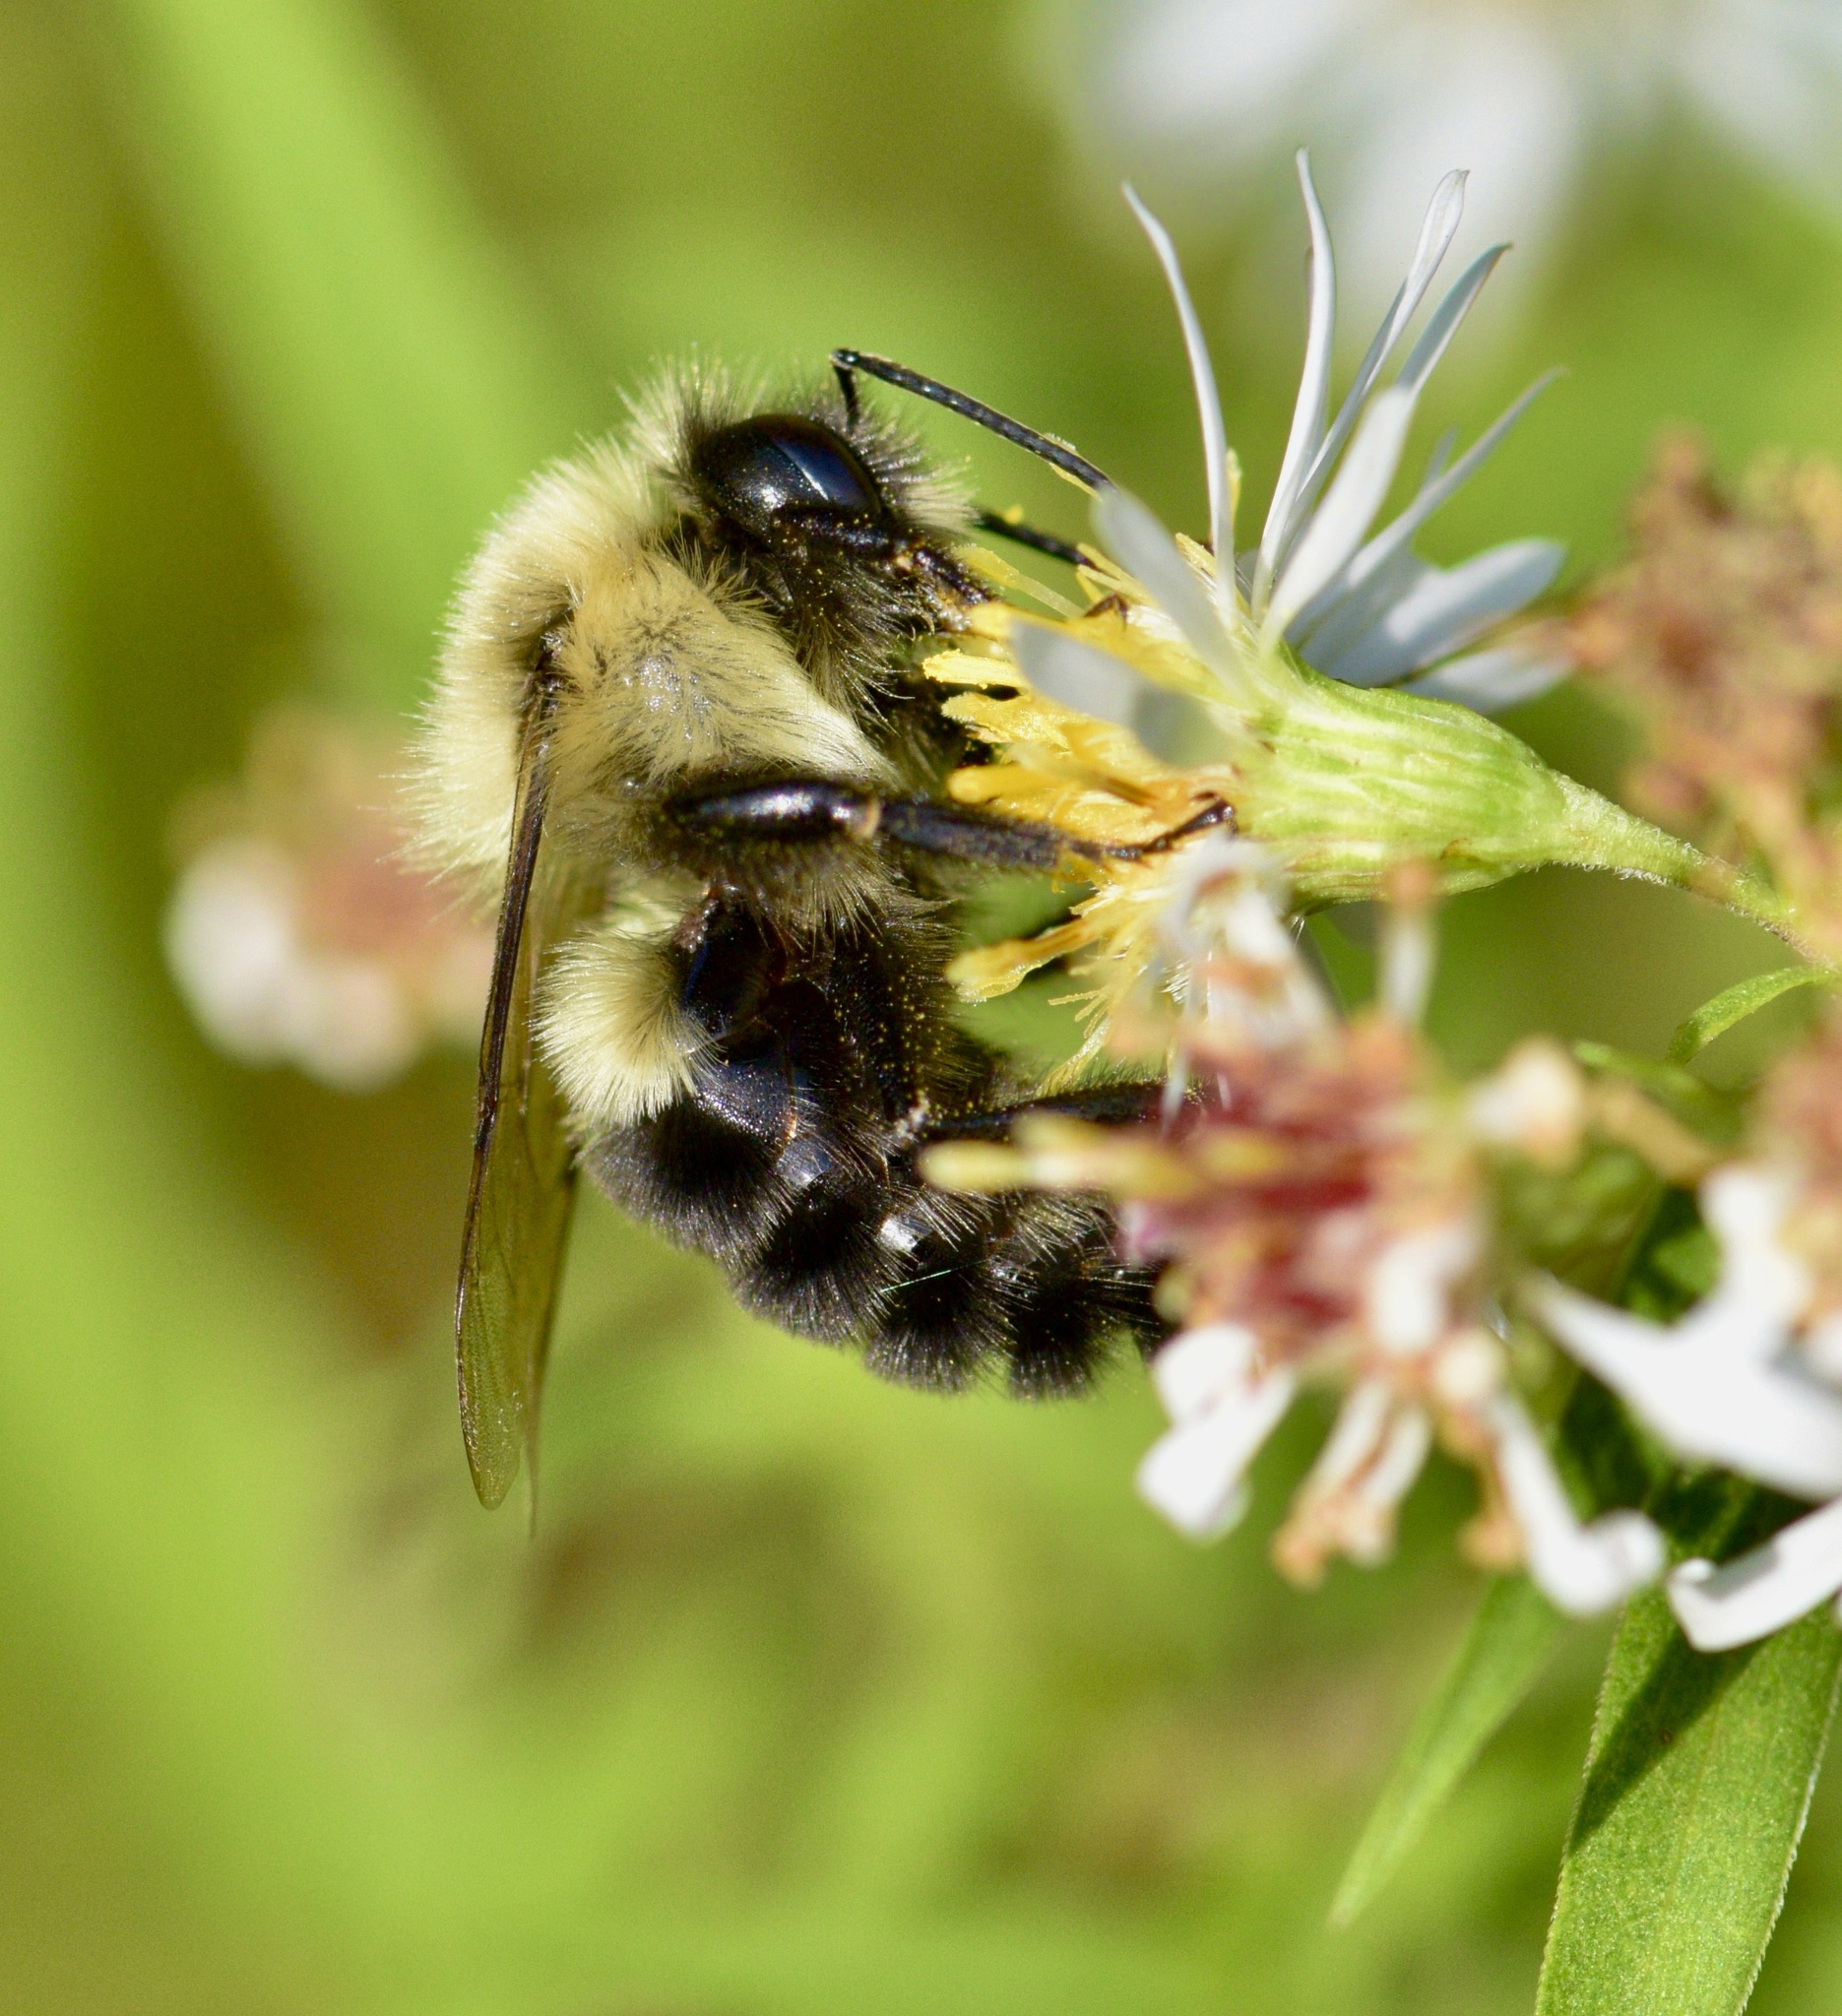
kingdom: Animalia
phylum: Arthropoda
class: Insecta
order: Hymenoptera
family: Apidae
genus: Bombus
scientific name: Bombus impatiens
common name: Common eastern bumble bee
